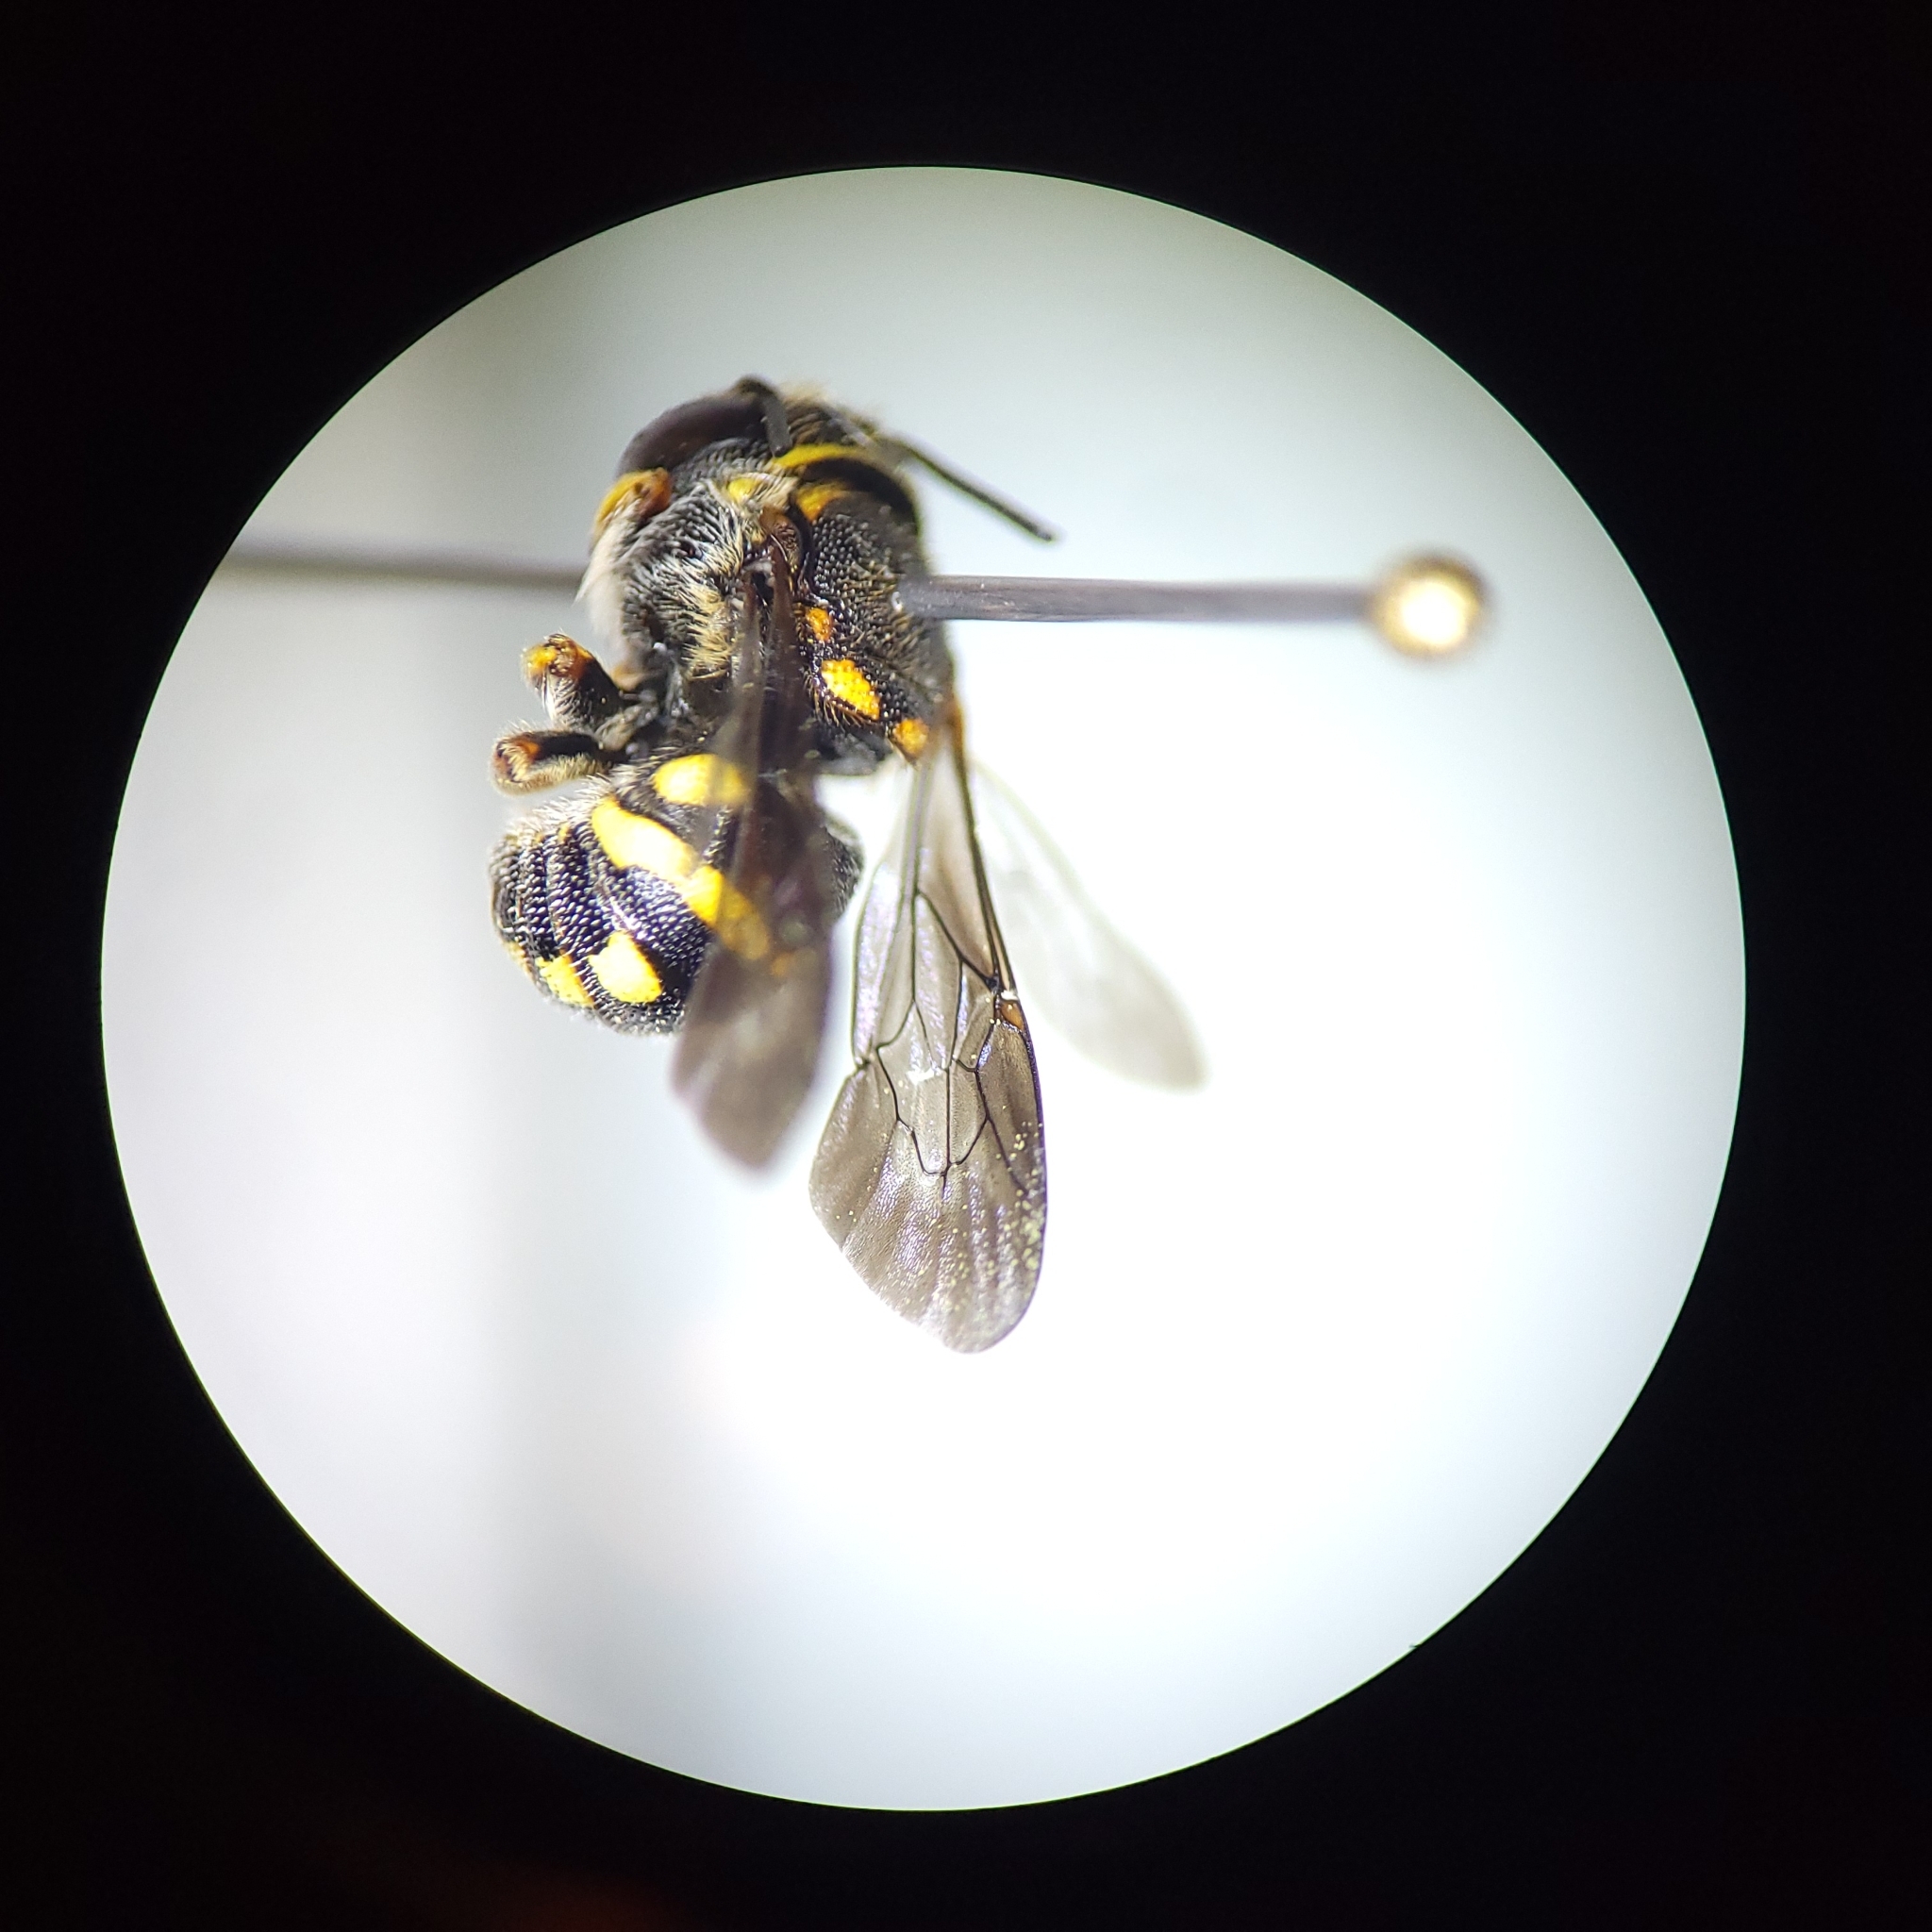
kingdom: Animalia
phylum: Arthropoda
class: Insecta
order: Hymenoptera
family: Megachilidae
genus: Anthidiellum
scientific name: Anthidiellum notatum
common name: Northern rotund-resin bee
